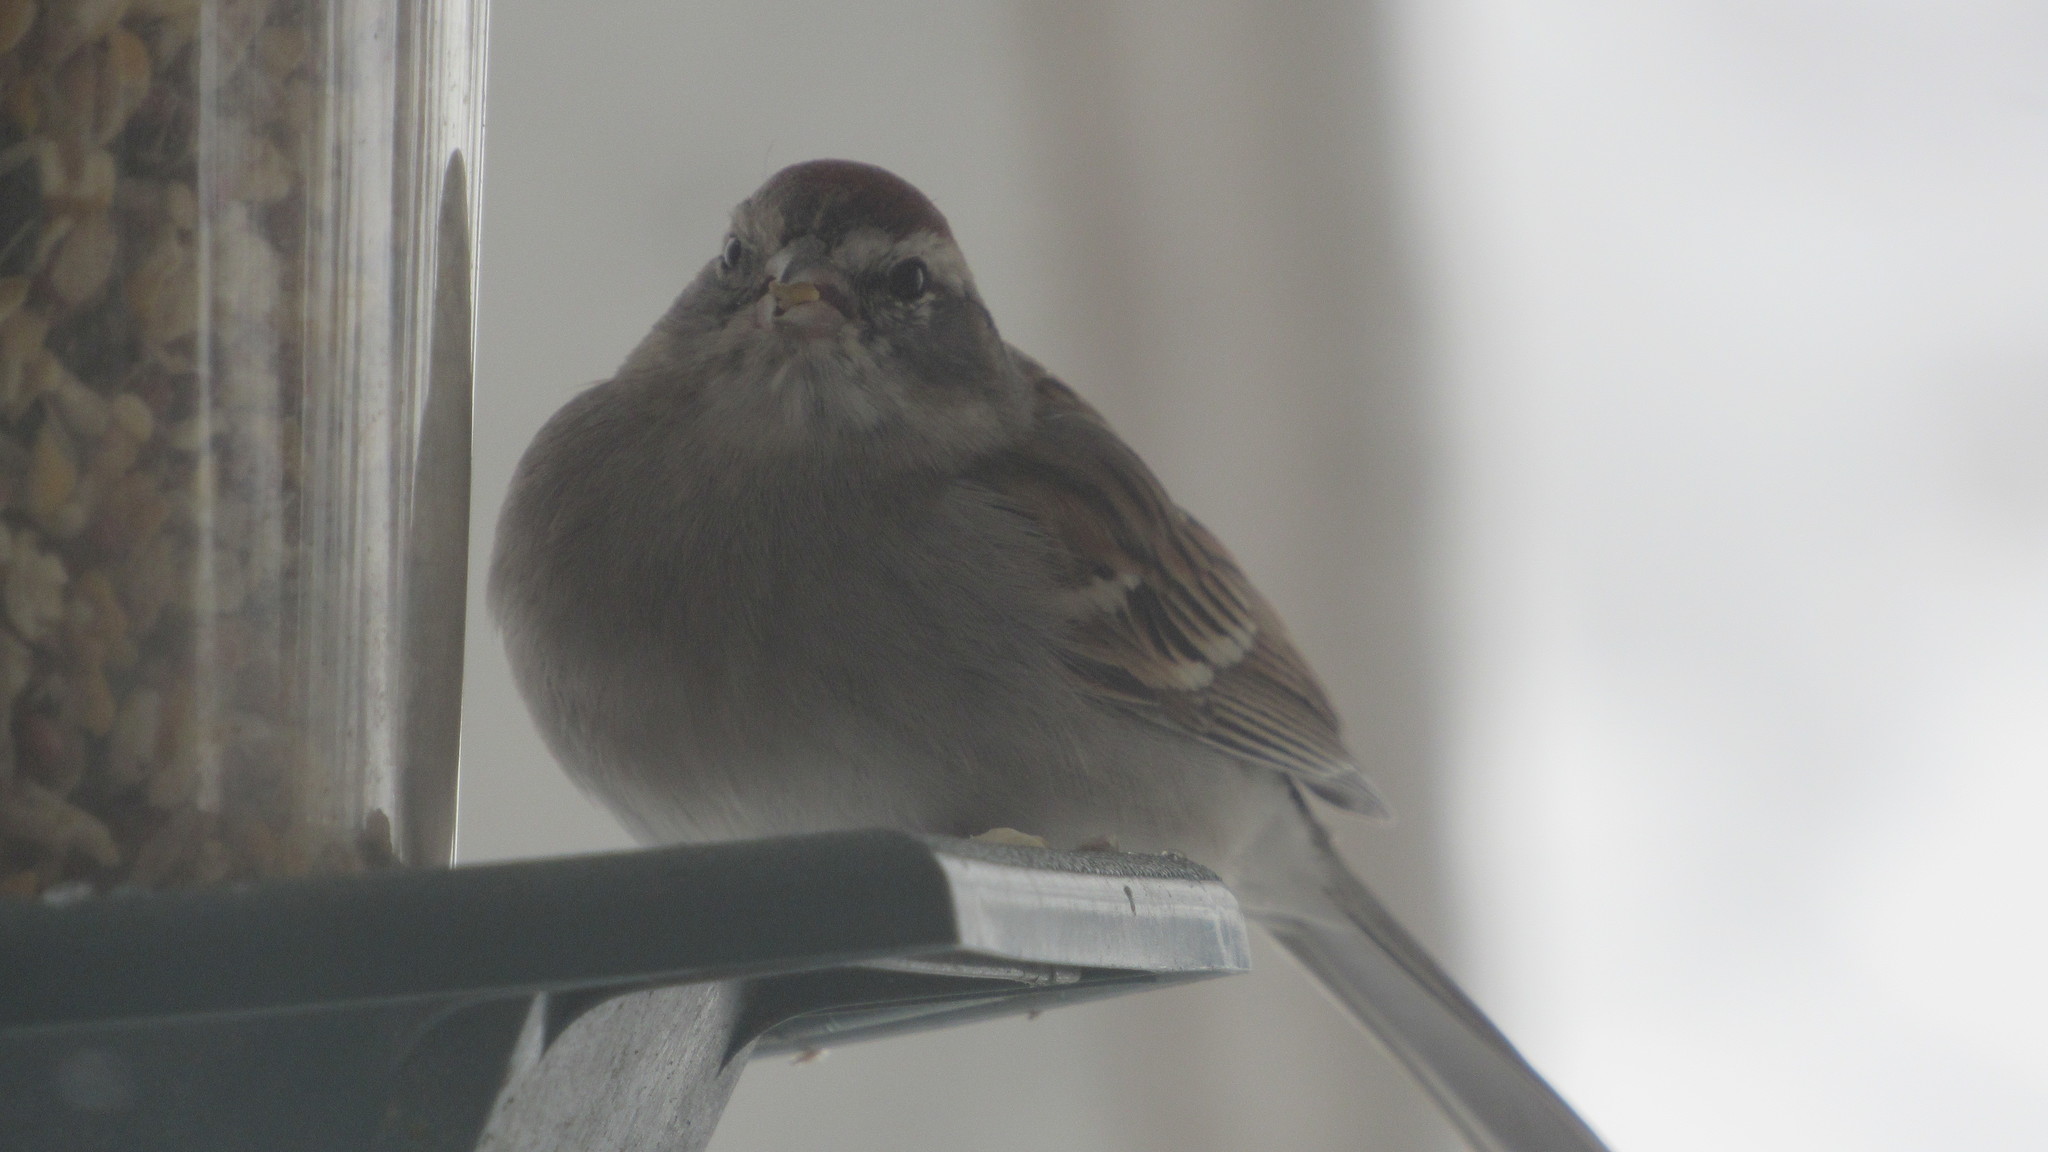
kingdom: Animalia
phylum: Chordata
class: Aves
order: Passeriformes
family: Passerellidae
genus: Spizella
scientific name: Spizella passerina
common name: Chipping sparrow
